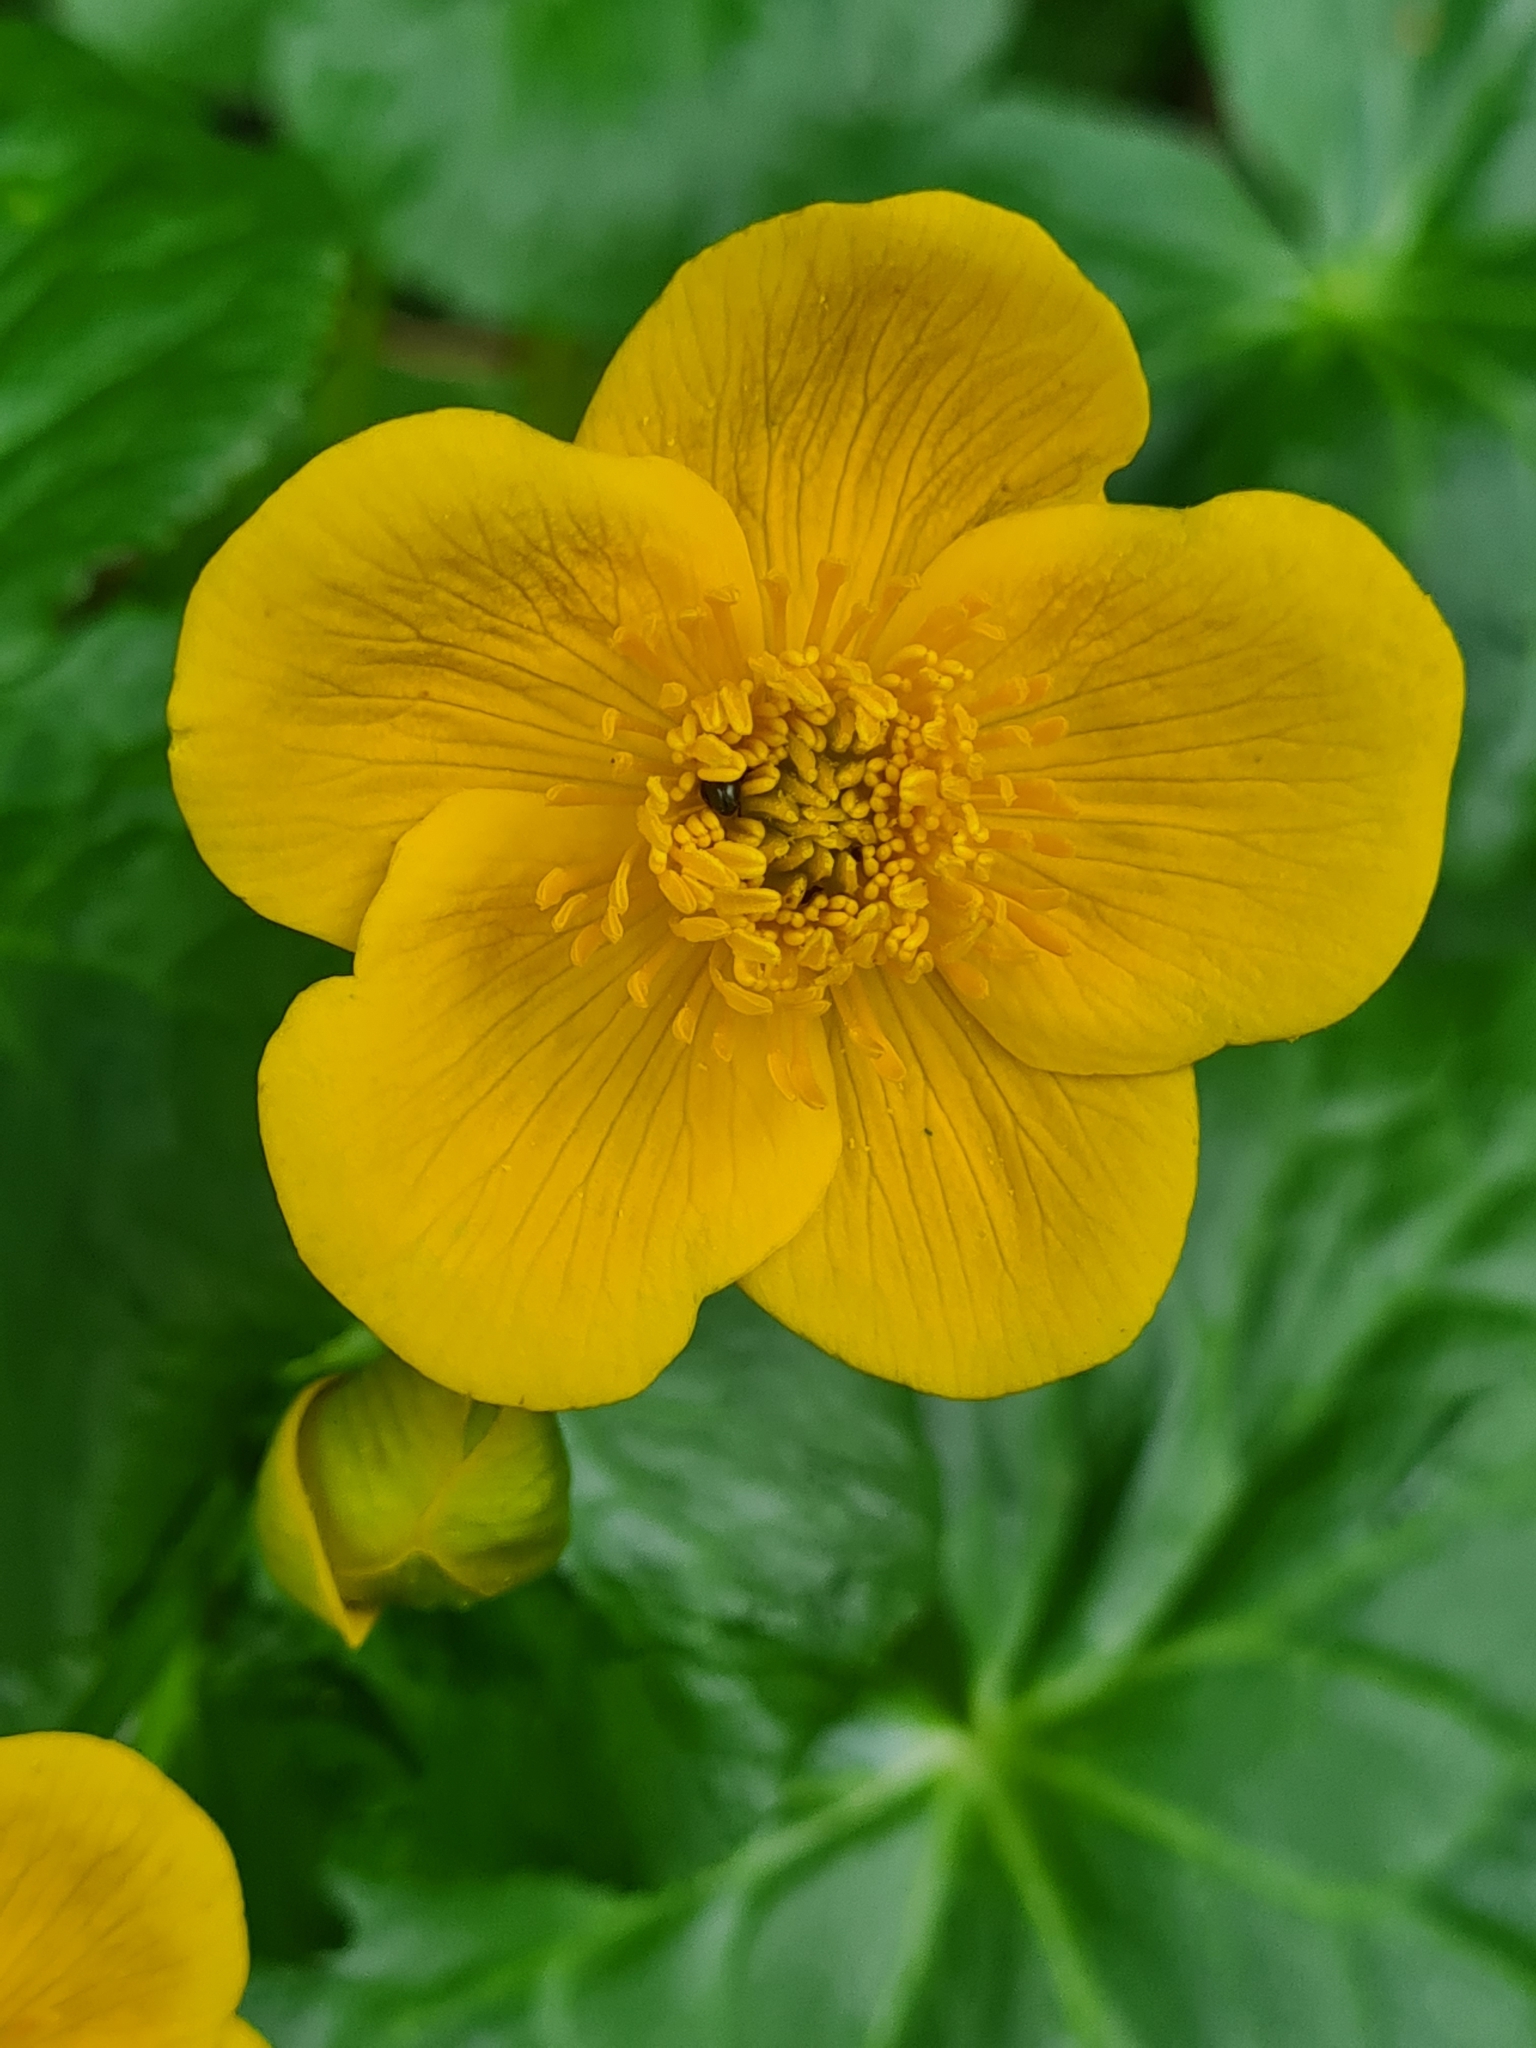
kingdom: Plantae
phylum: Tracheophyta
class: Magnoliopsida
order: Ranunculales
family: Ranunculaceae
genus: Caltha
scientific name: Caltha palustris
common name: Marsh marigold
